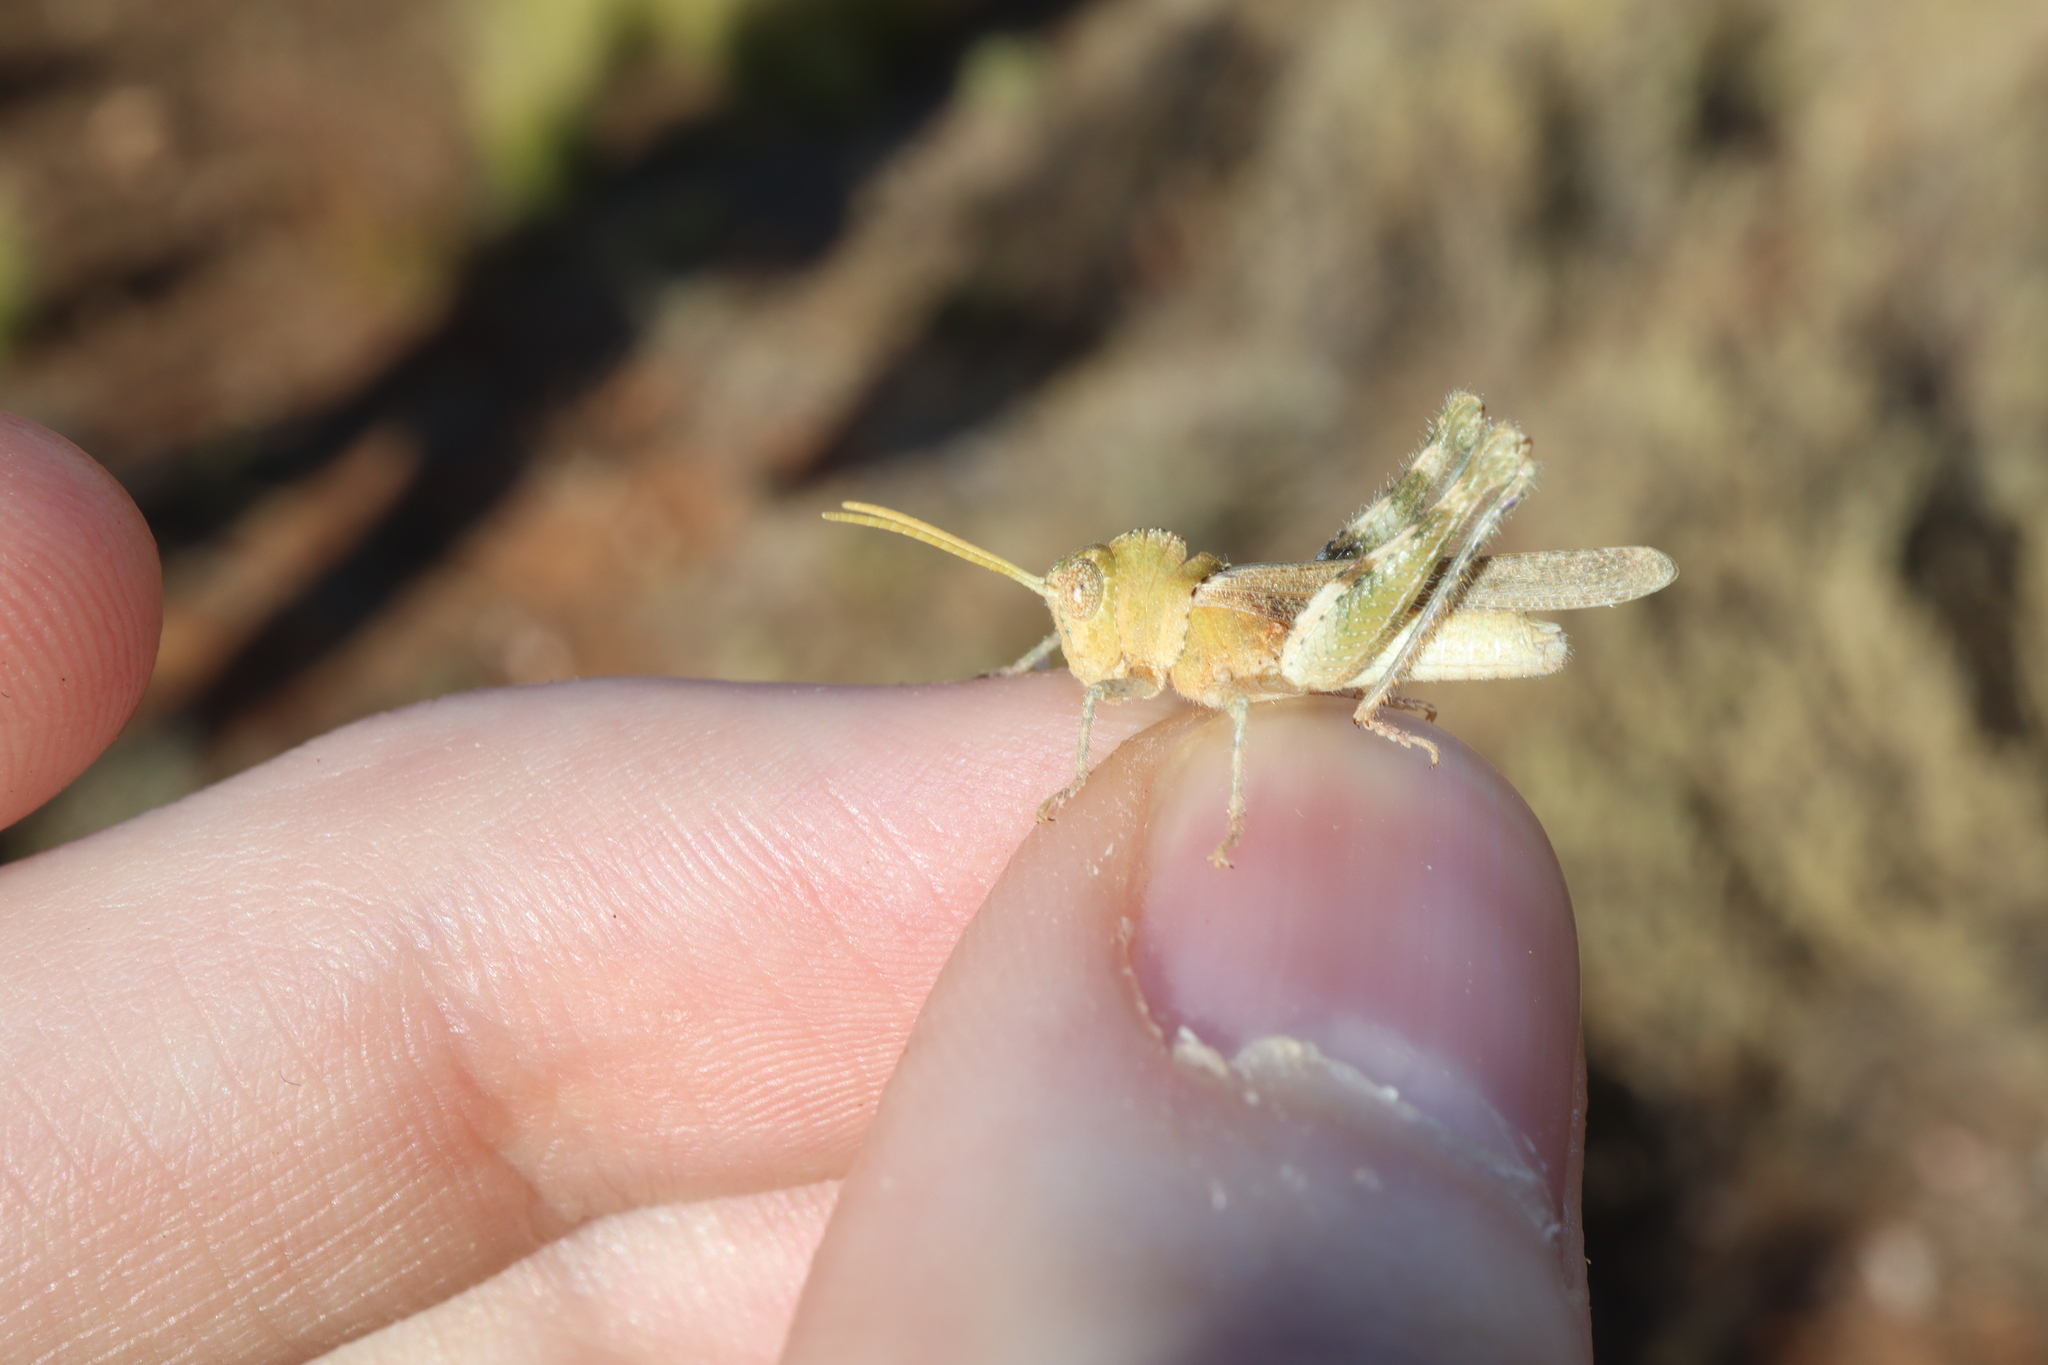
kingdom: Animalia
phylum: Arthropoda
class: Insecta
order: Orthoptera
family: Acrididae
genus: Ecphantus
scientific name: Ecphantus quadrilobus
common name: Crested tooth grinder
